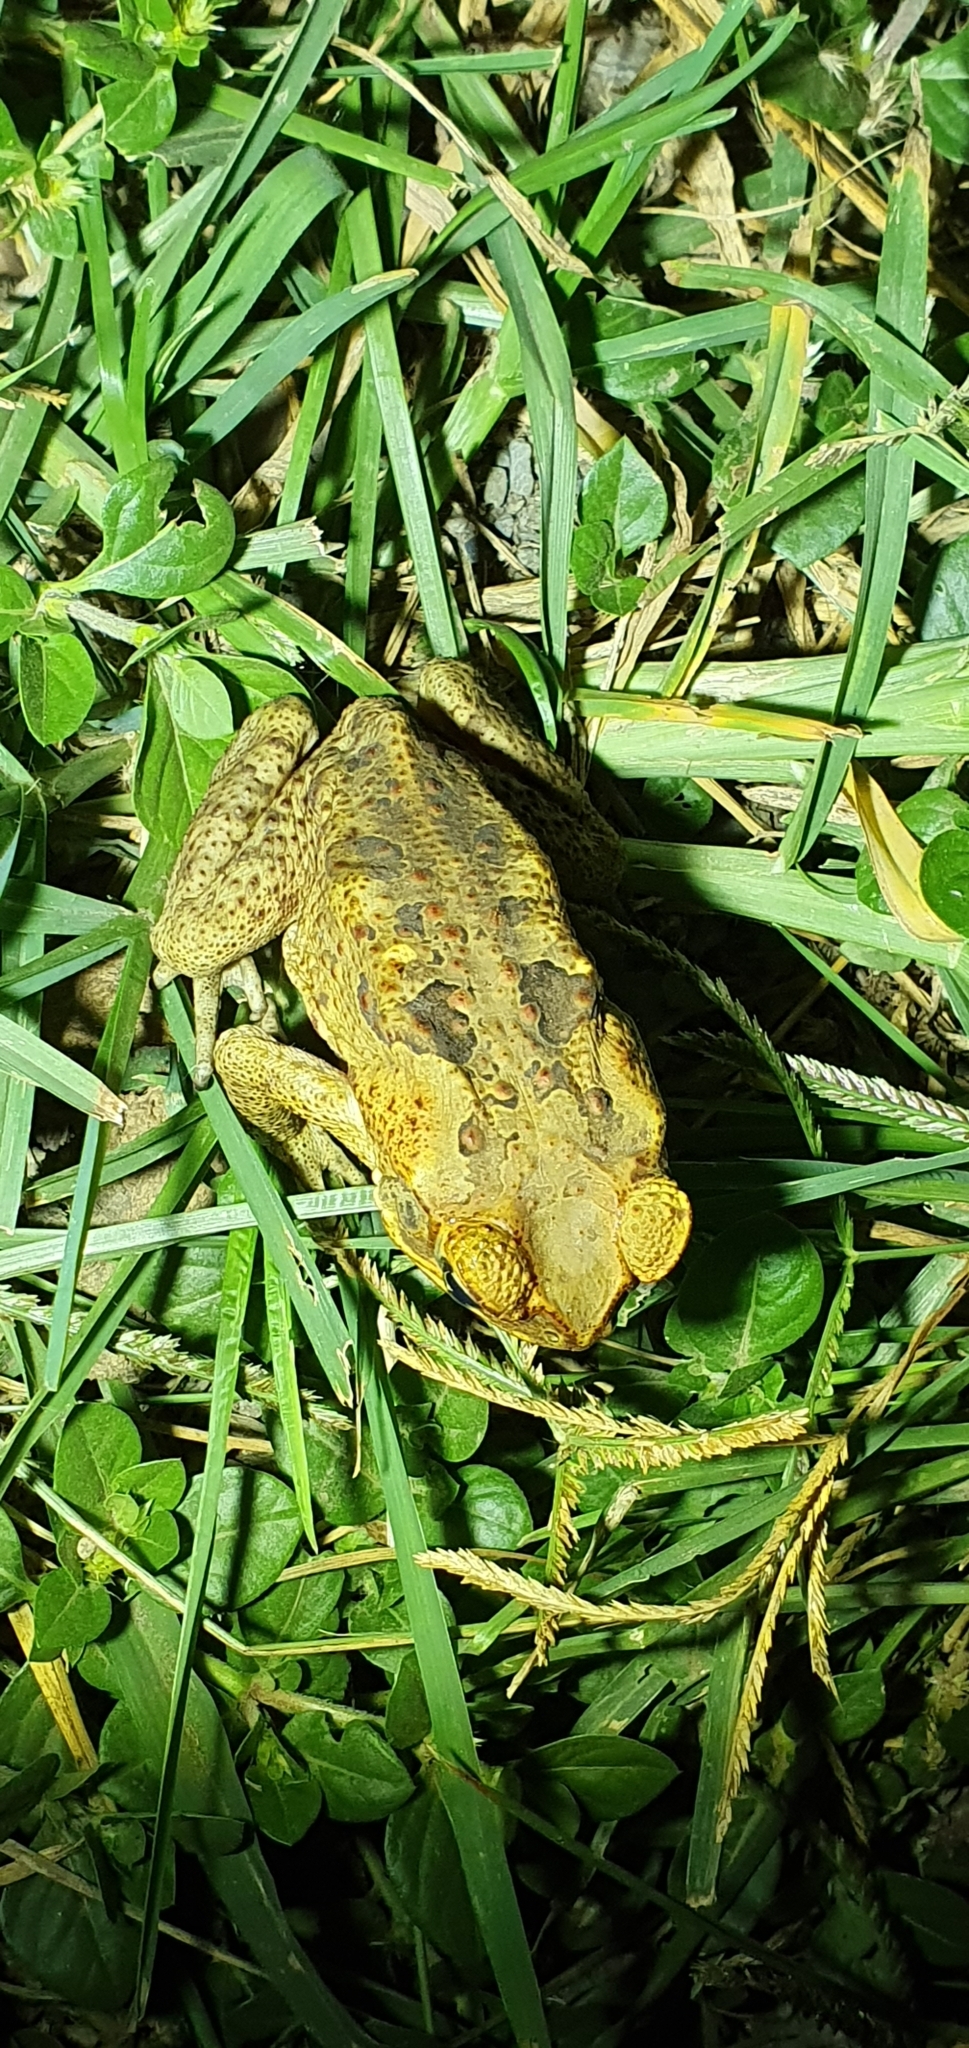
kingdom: Animalia
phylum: Chordata
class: Amphibia
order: Anura
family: Bufonidae
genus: Rhinella
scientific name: Rhinella marina
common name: Cane toad
